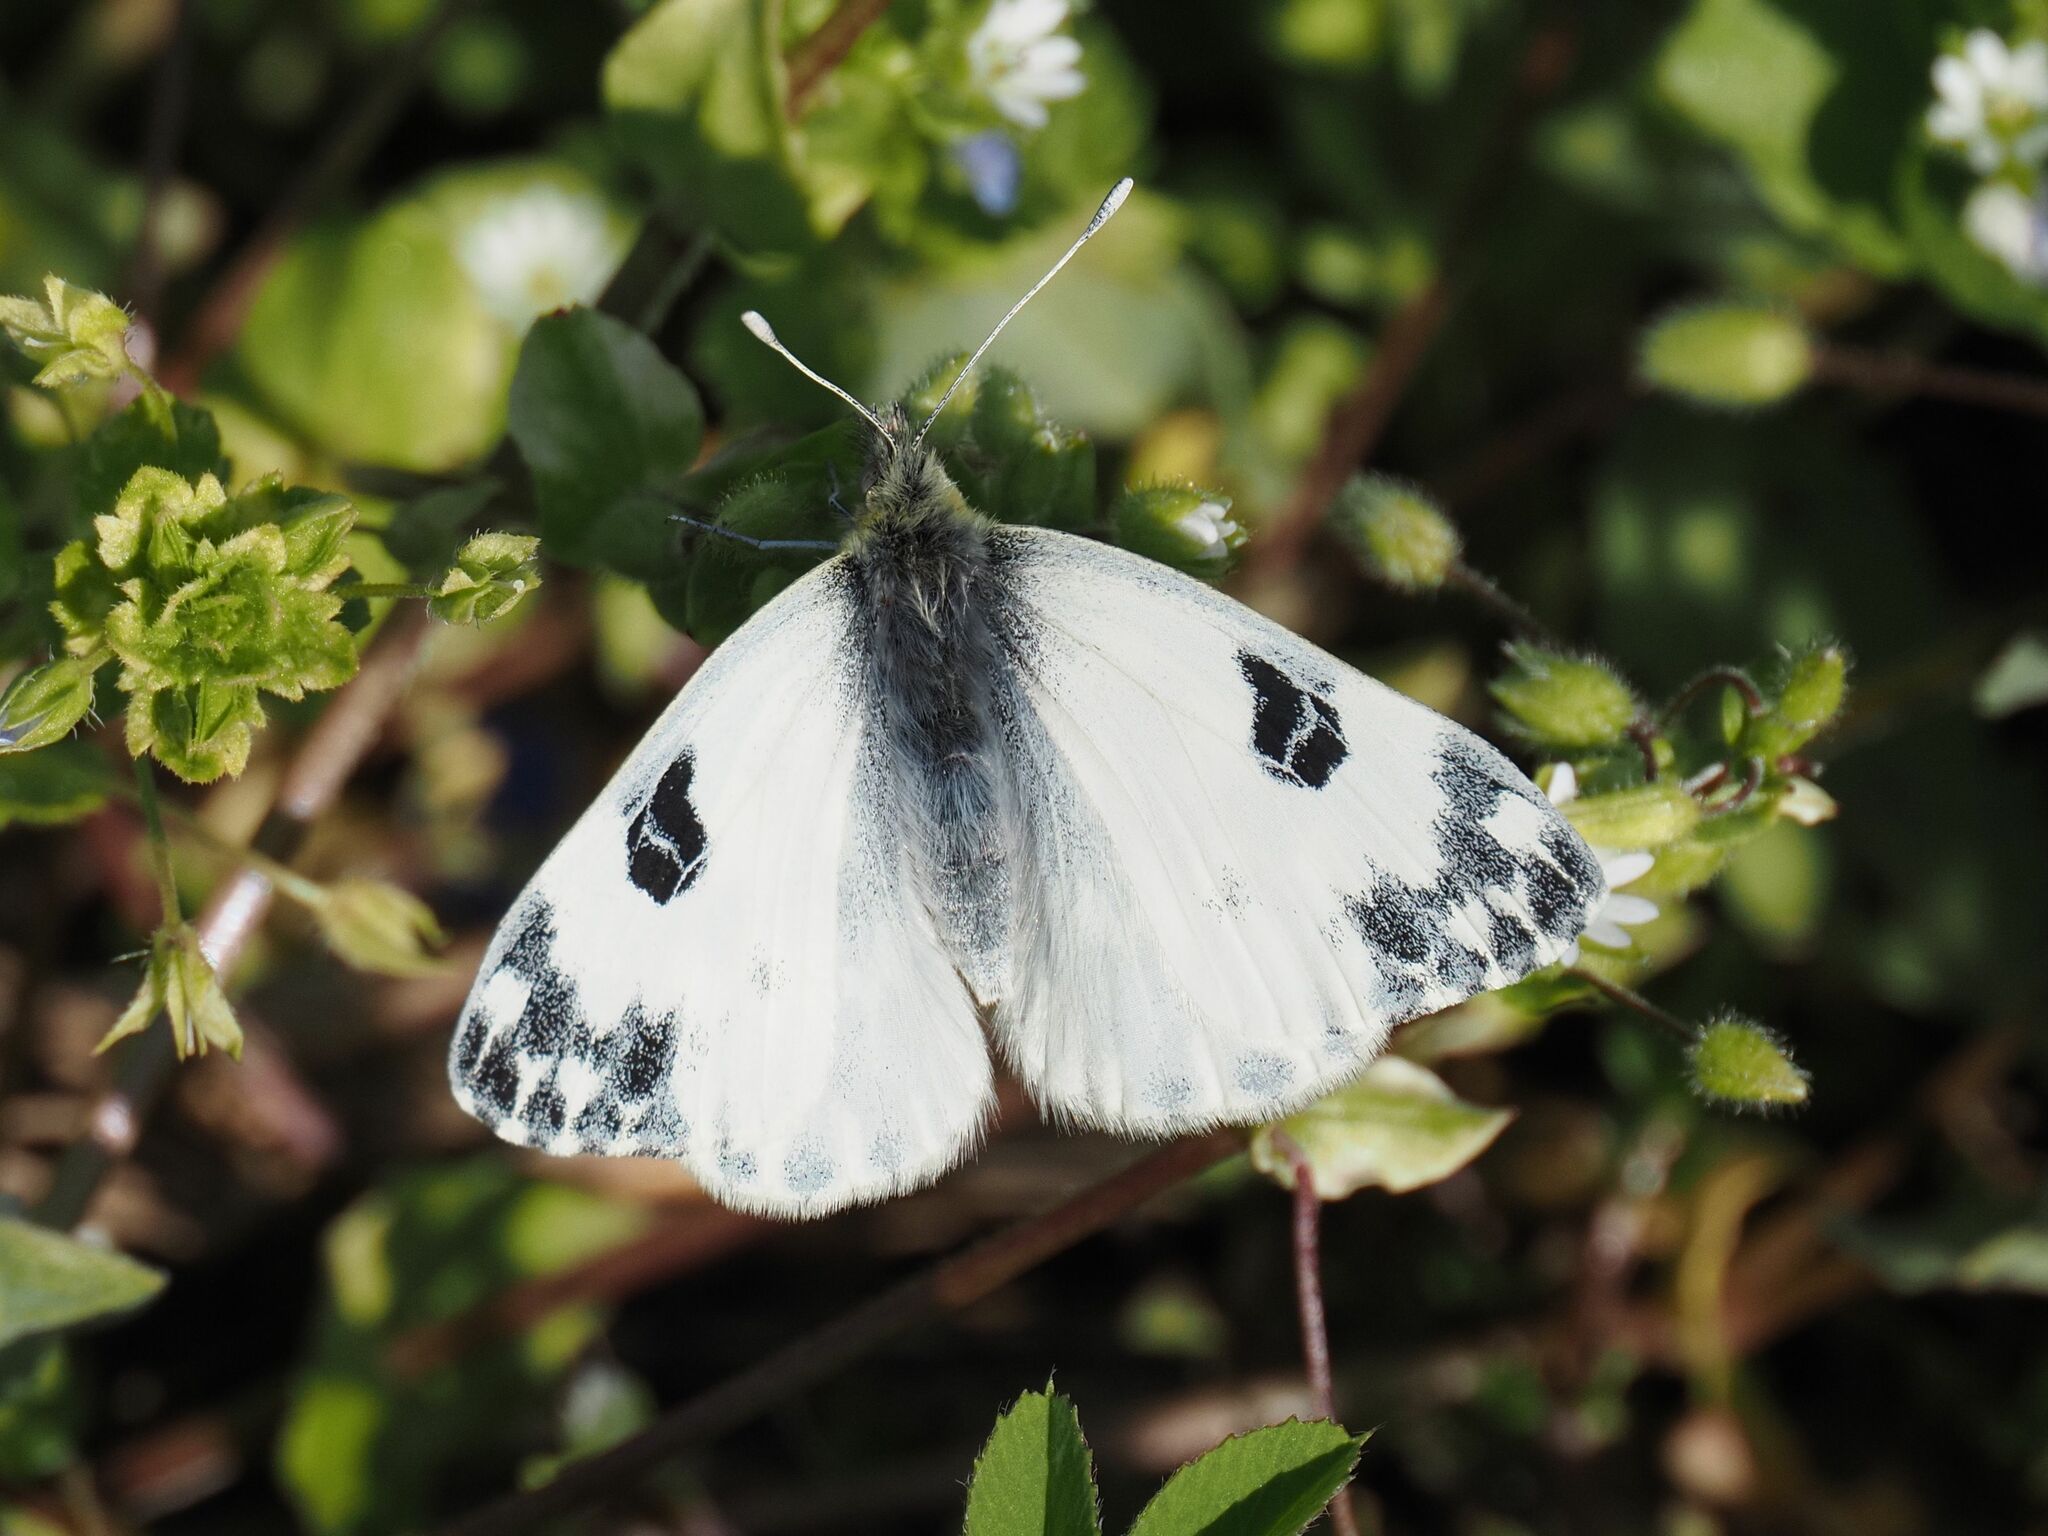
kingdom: Animalia
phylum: Arthropoda
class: Insecta
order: Lepidoptera
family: Pieridae
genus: Pontia
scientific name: Pontia edusa
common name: Eastern bath white
